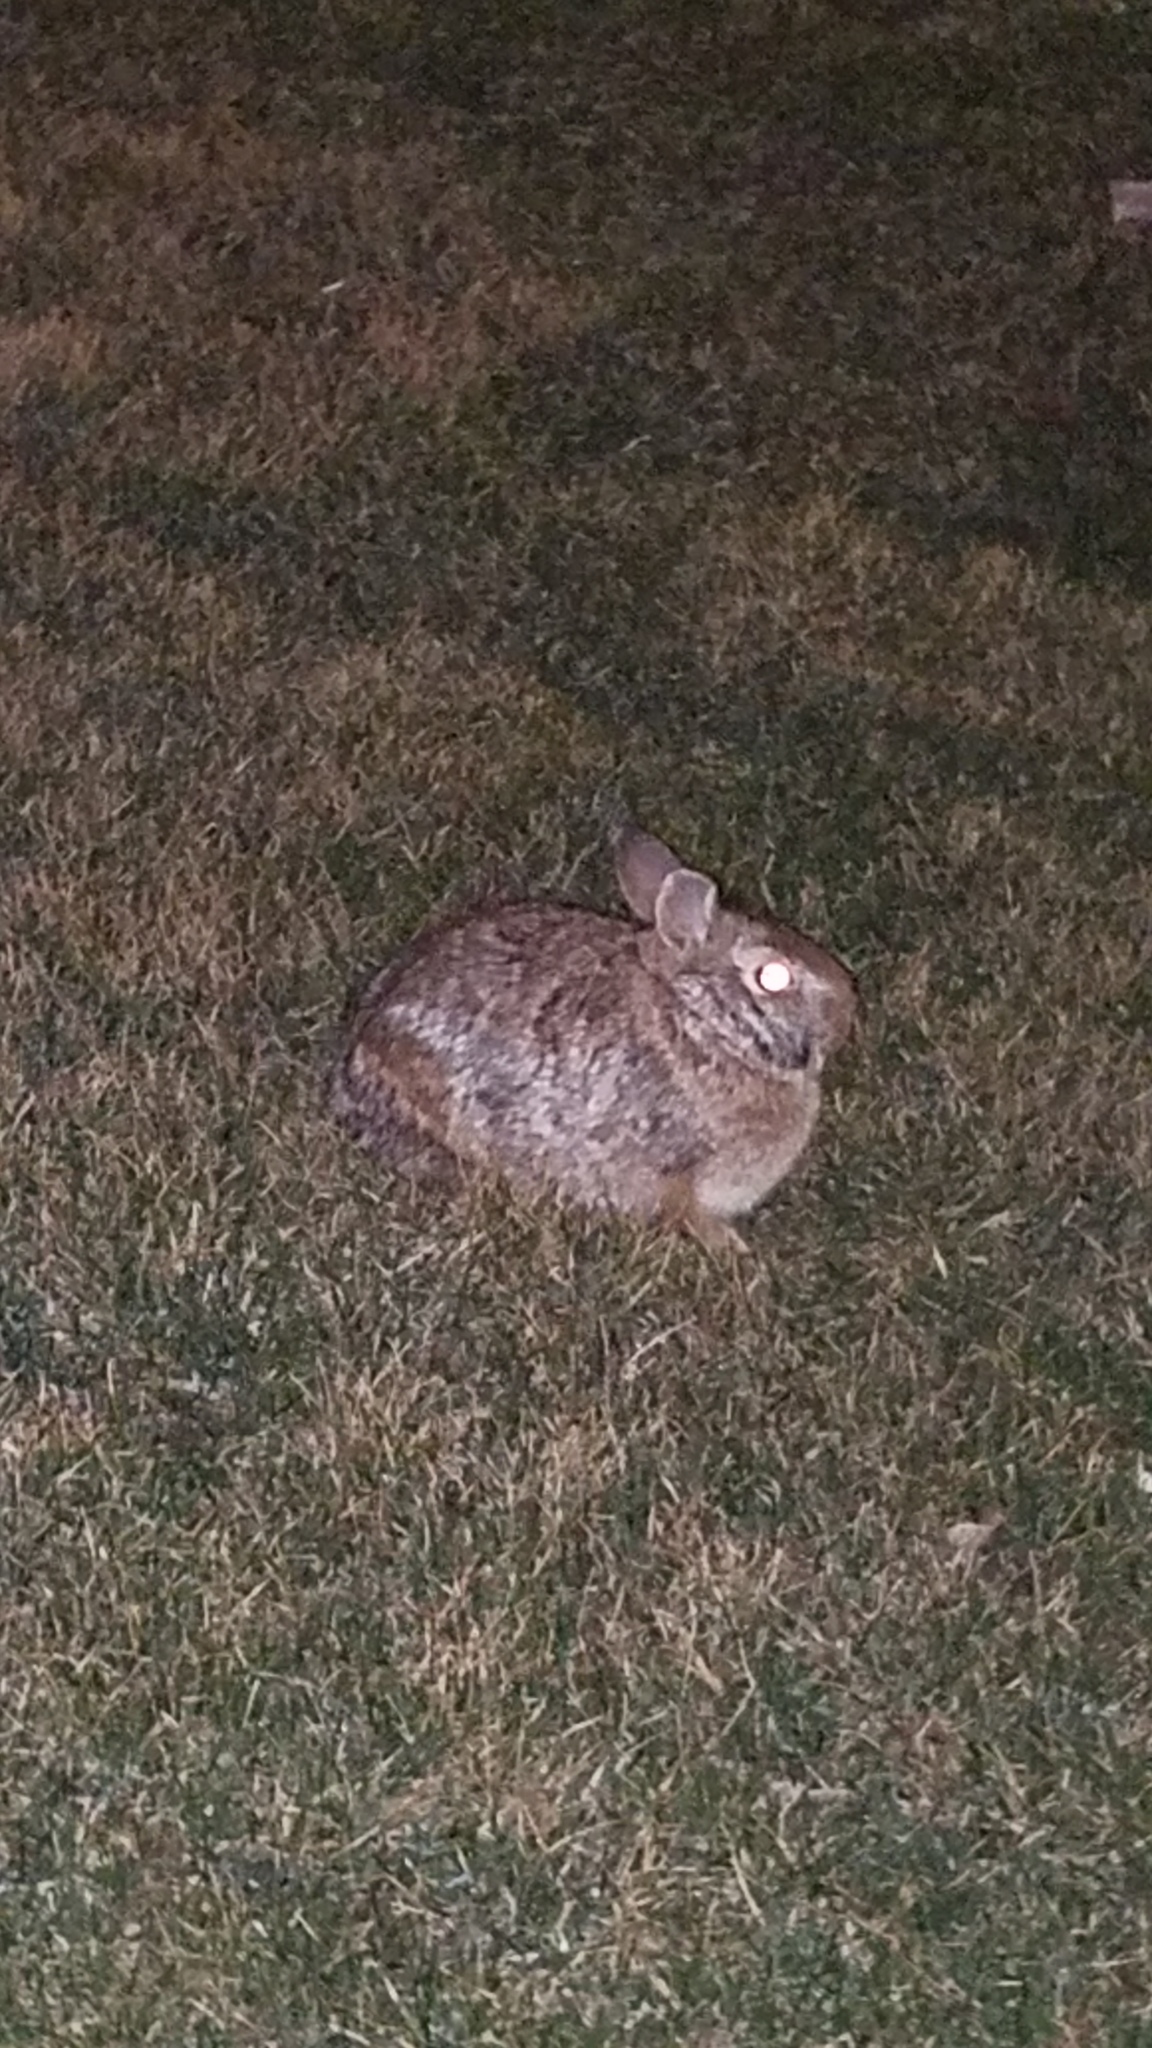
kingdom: Animalia
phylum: Chordata
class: Mammalia
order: Lagomorpha
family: Leporidae
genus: Sylvilagus
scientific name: Sylvilagus floridanus
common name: Eastern cottontail
